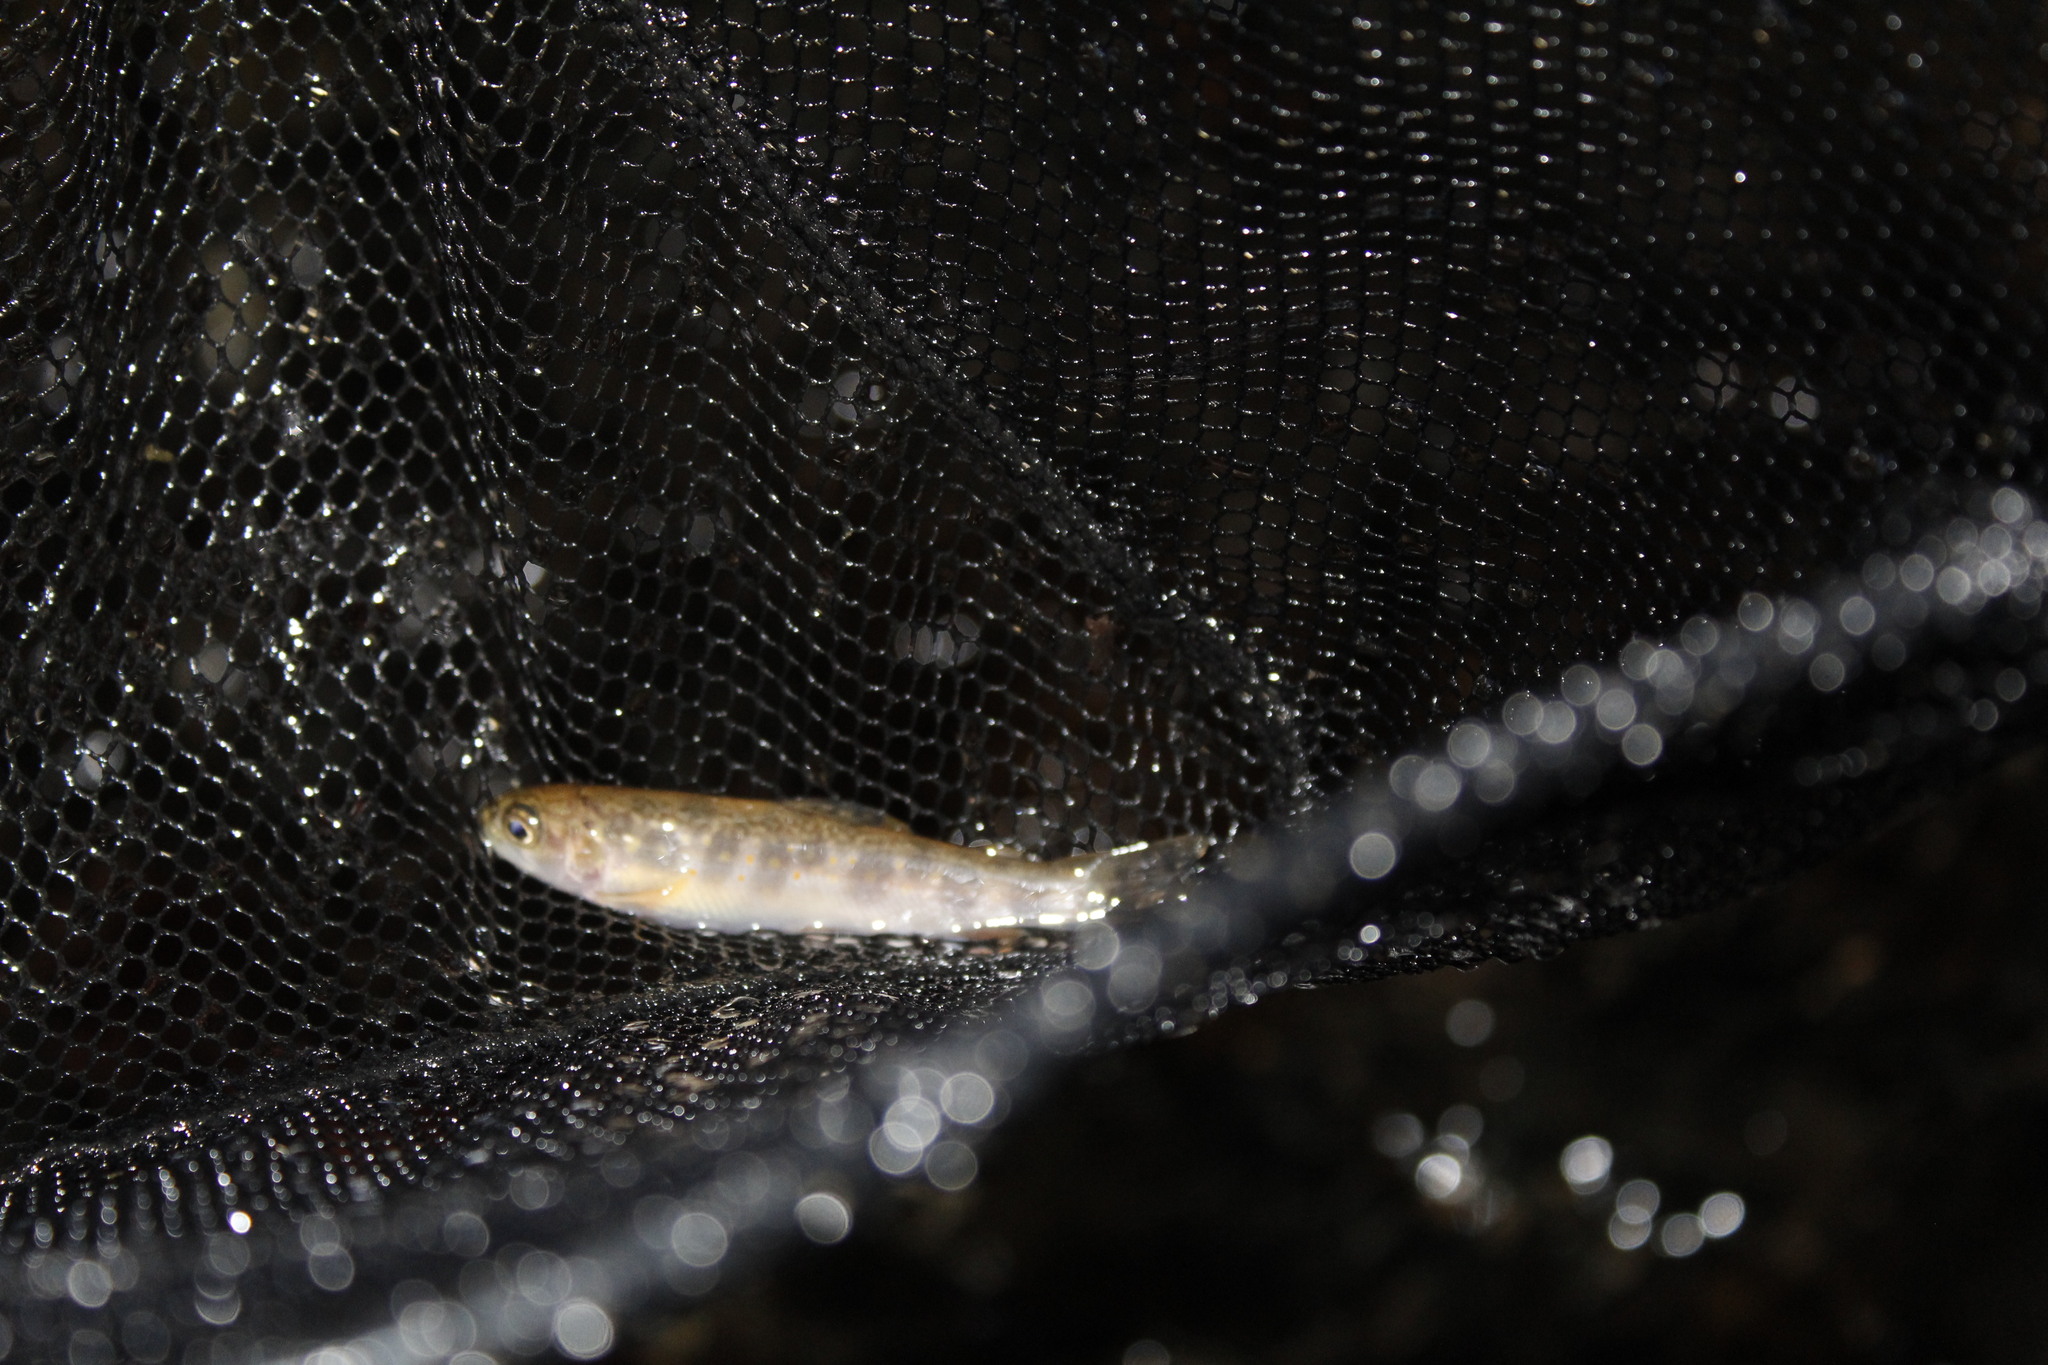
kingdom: Animalia
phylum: Chordata
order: Salmoniformes
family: Salmonidae
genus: Salvelinus
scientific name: Salvelinus fontinalis
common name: Brook trout
